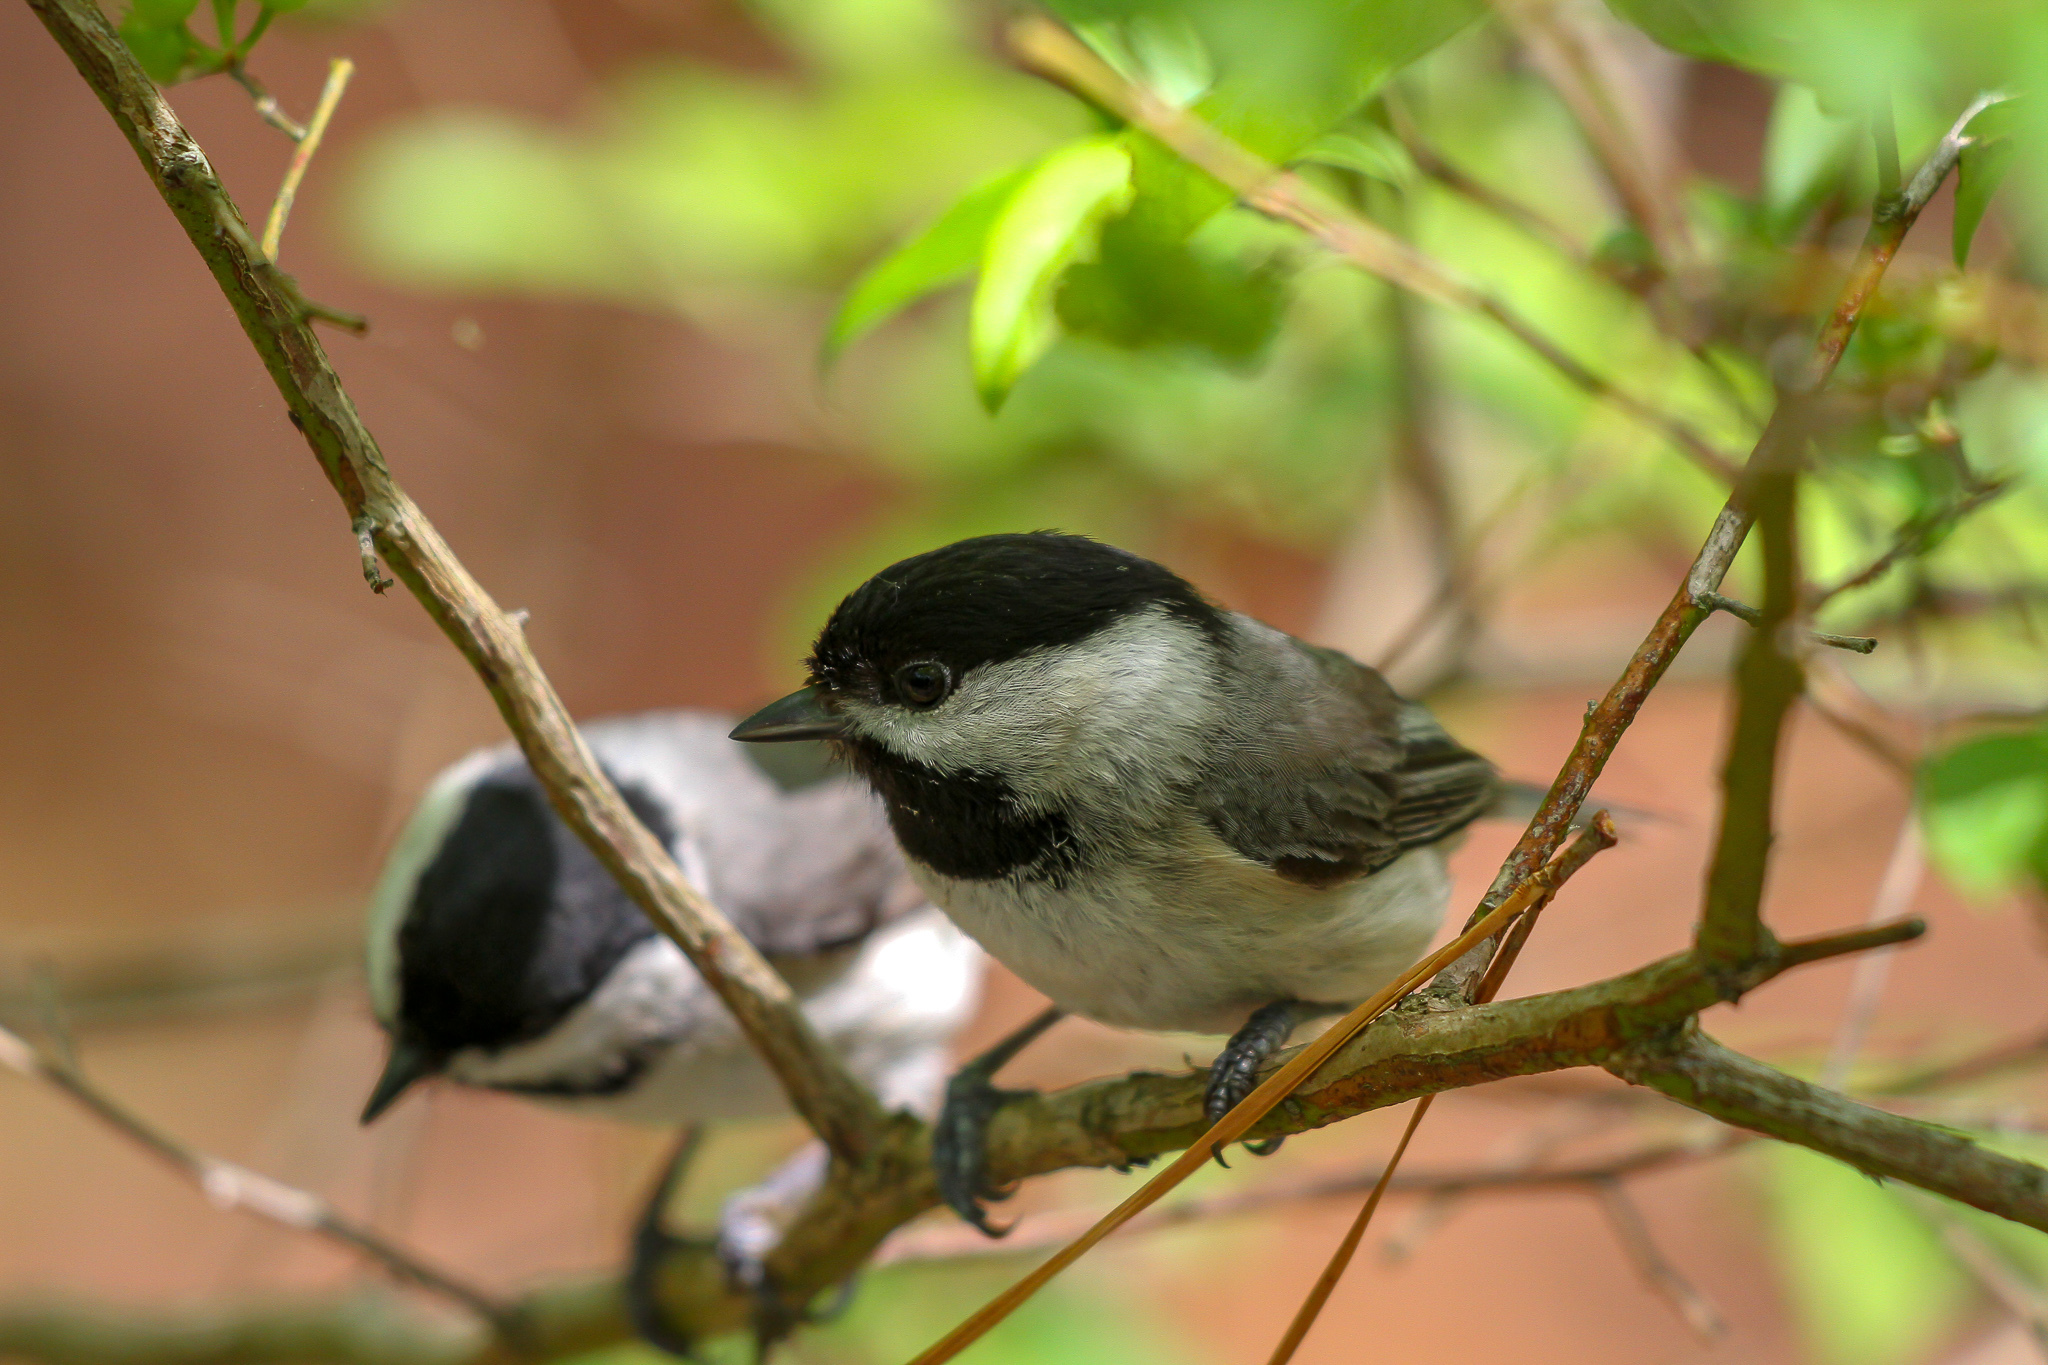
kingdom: Animalia
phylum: Chordata
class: Aves
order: Passeriformes
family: Paridae
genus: Poecile
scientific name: Poecile carolinensis
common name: Carolina chickadee
